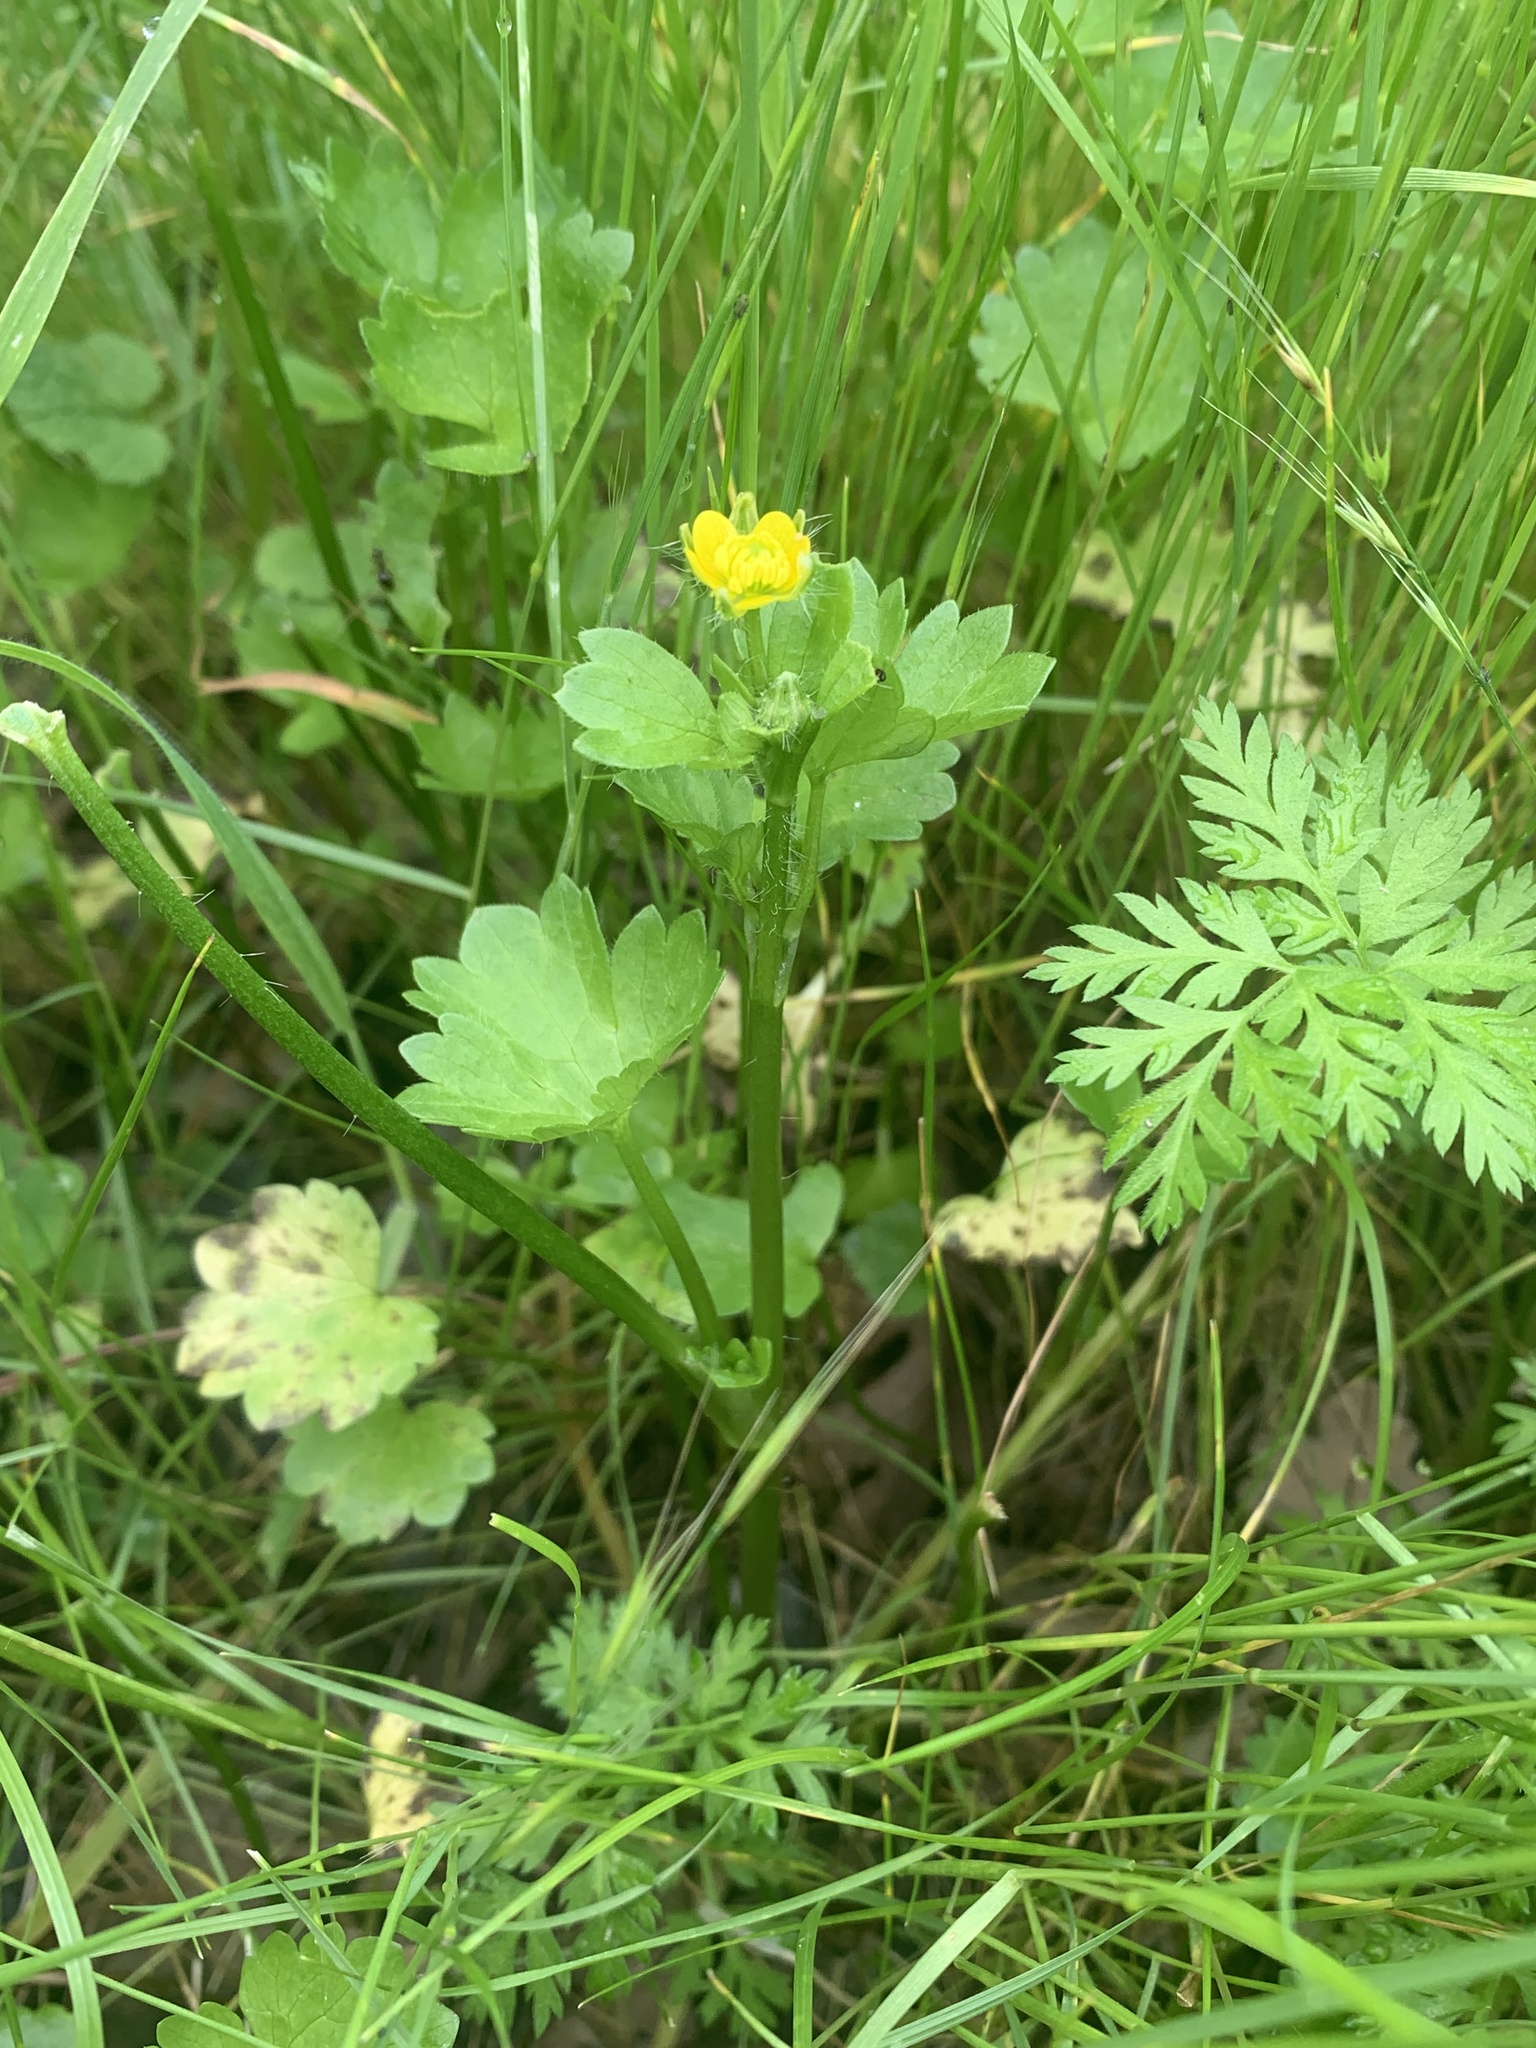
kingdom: Plantae
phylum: Tracheophyta
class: Magnoliopsida
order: Ranunculales
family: Ranunculaceae
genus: Ranunculus
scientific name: Ranunculus muricatus
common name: Rough-fruited buttercup
